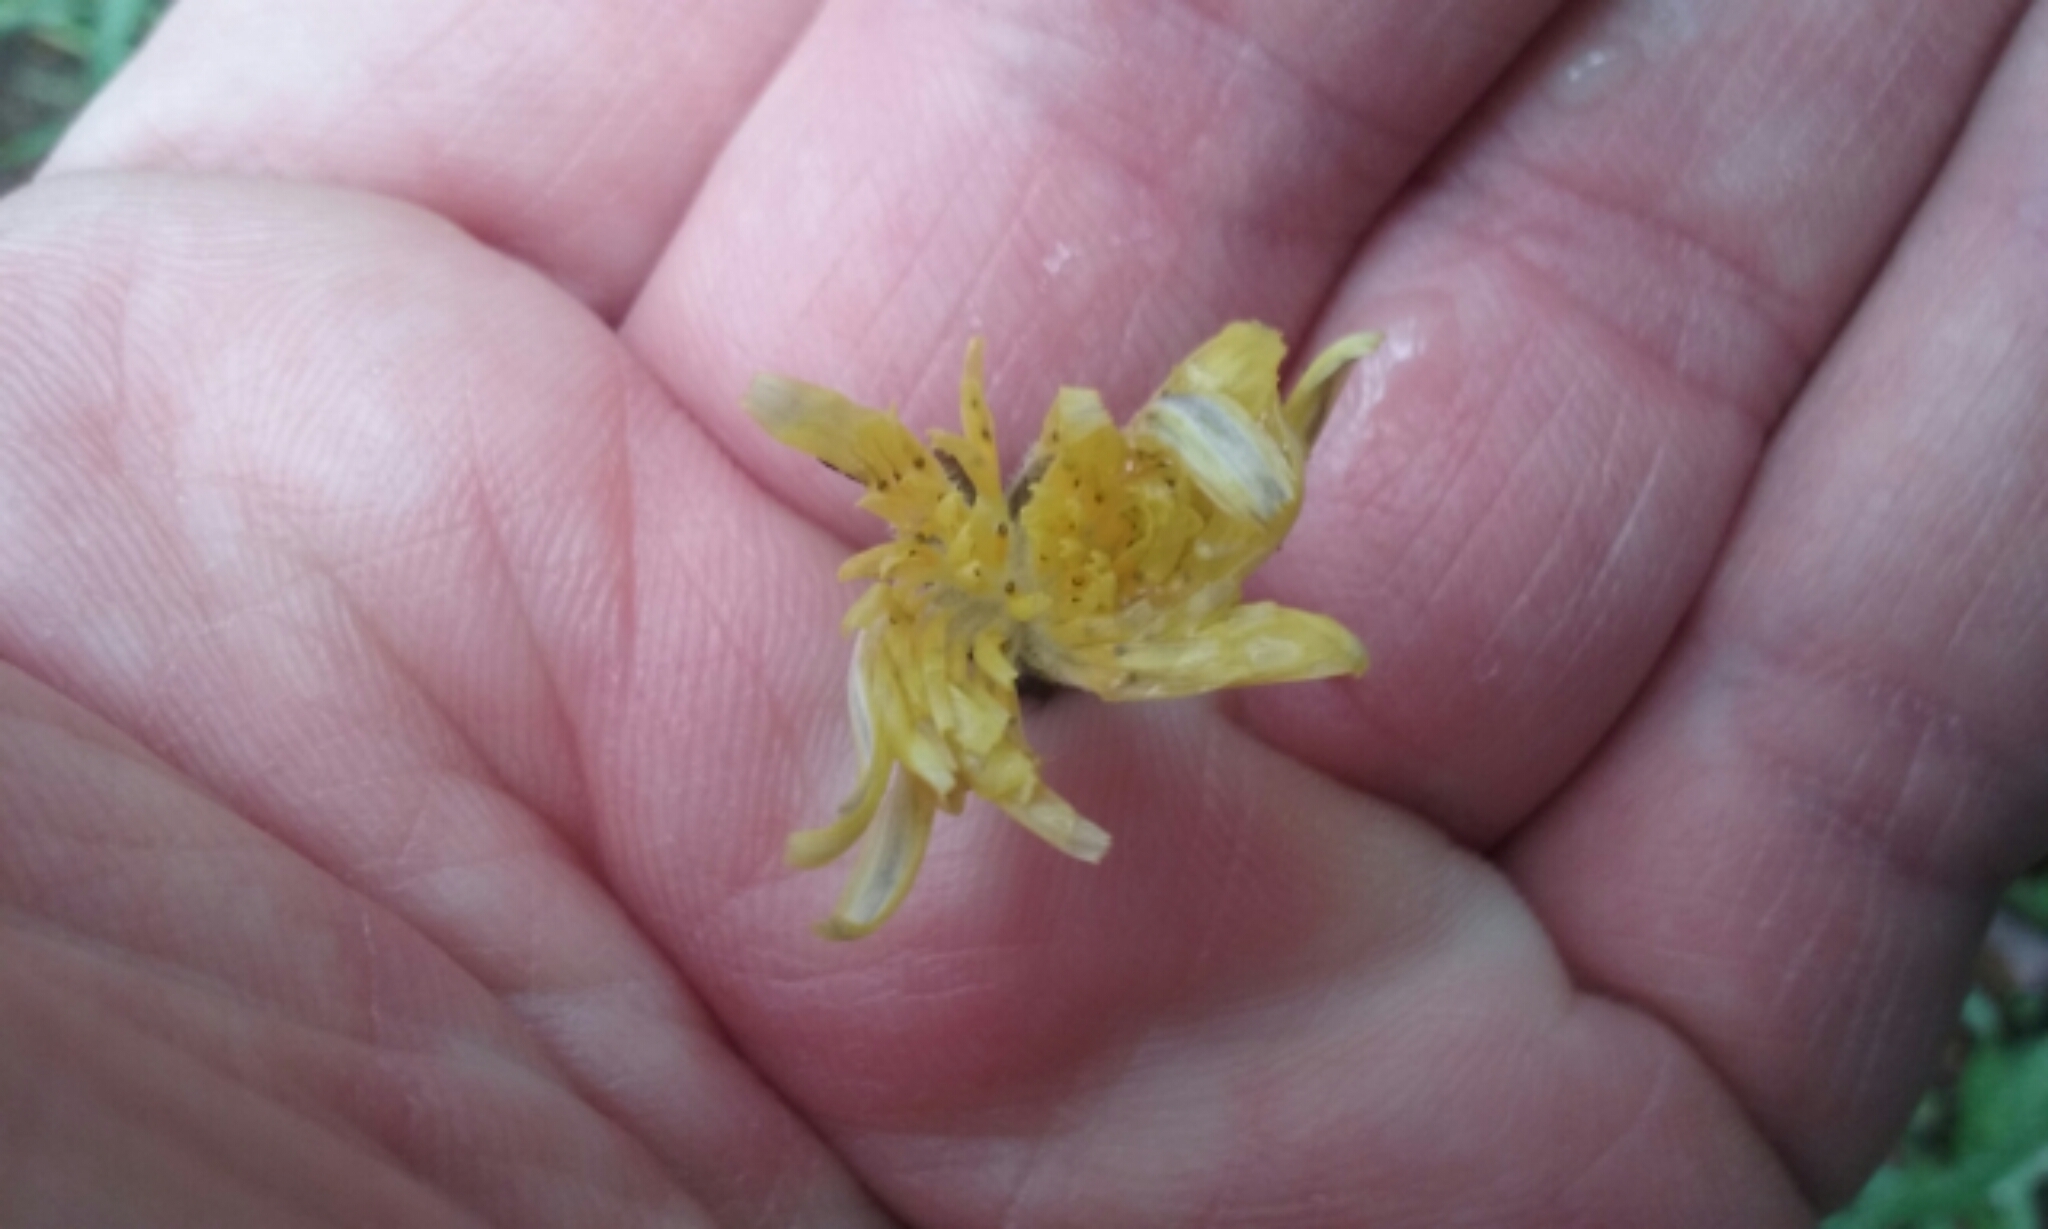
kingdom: Plantae
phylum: Tracheophyta
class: Magnoliopsida
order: Asterales
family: Asteraceae
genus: Sonchus
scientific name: Sonchus oleraceus
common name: Common sowthistle
